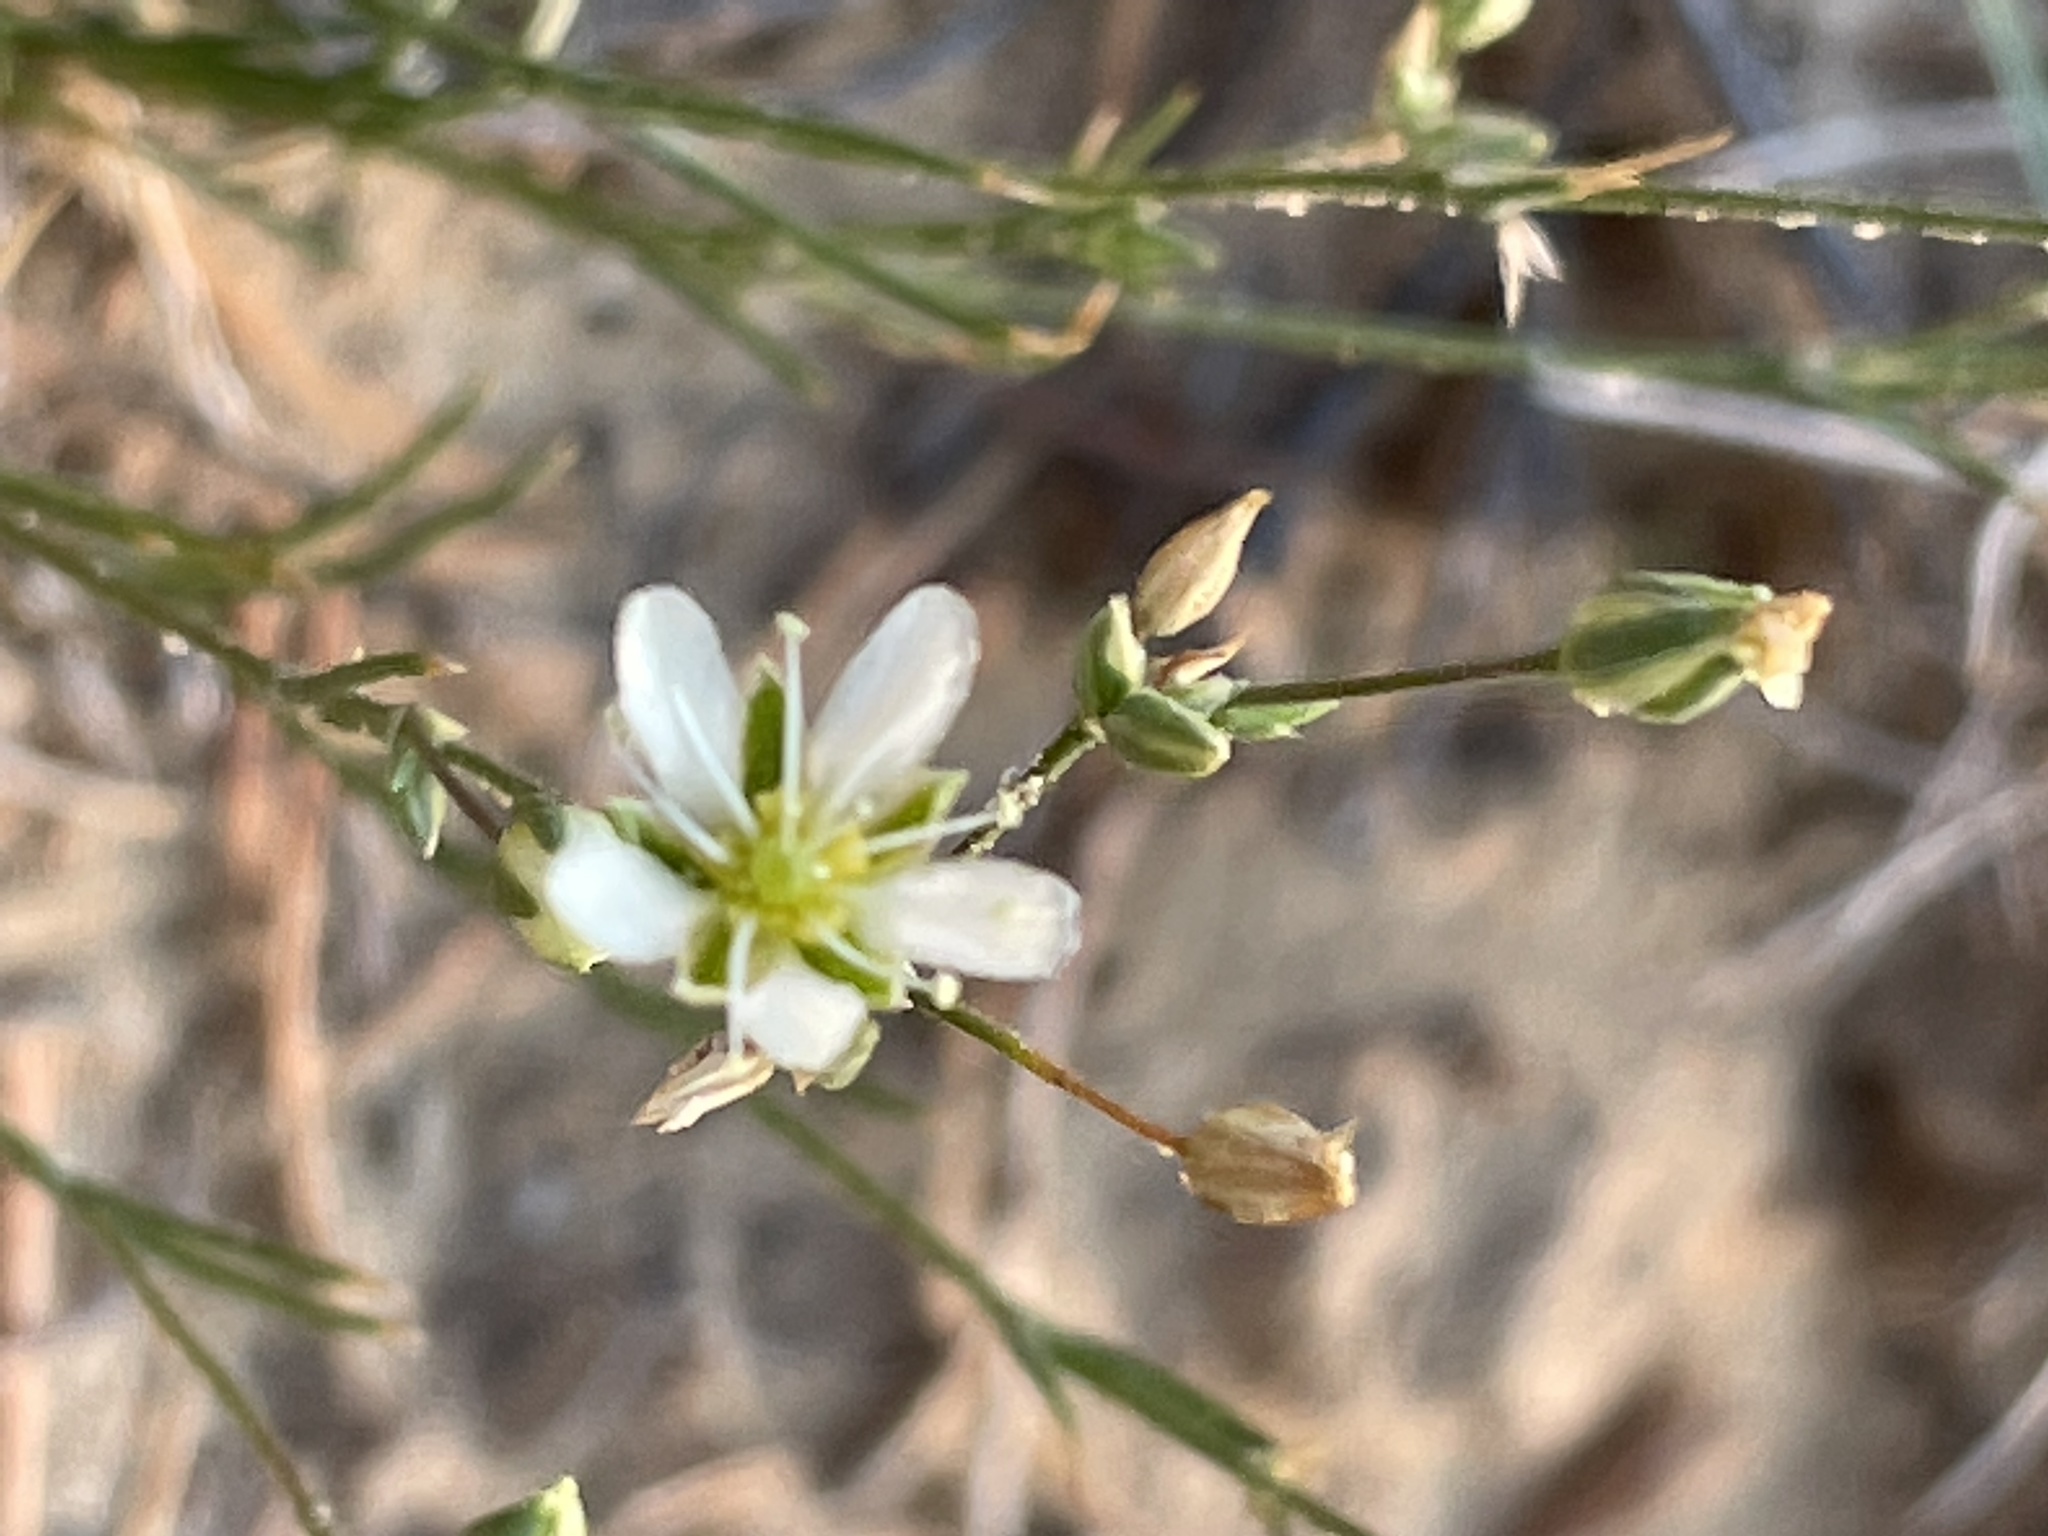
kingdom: Plantae
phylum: Tracheophyta
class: Magnoliopsida
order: Caryophyllales
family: Caryophyllaceae
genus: Eremogone
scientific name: Eremogone eastwoodiae
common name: Eastwood's sandwort
